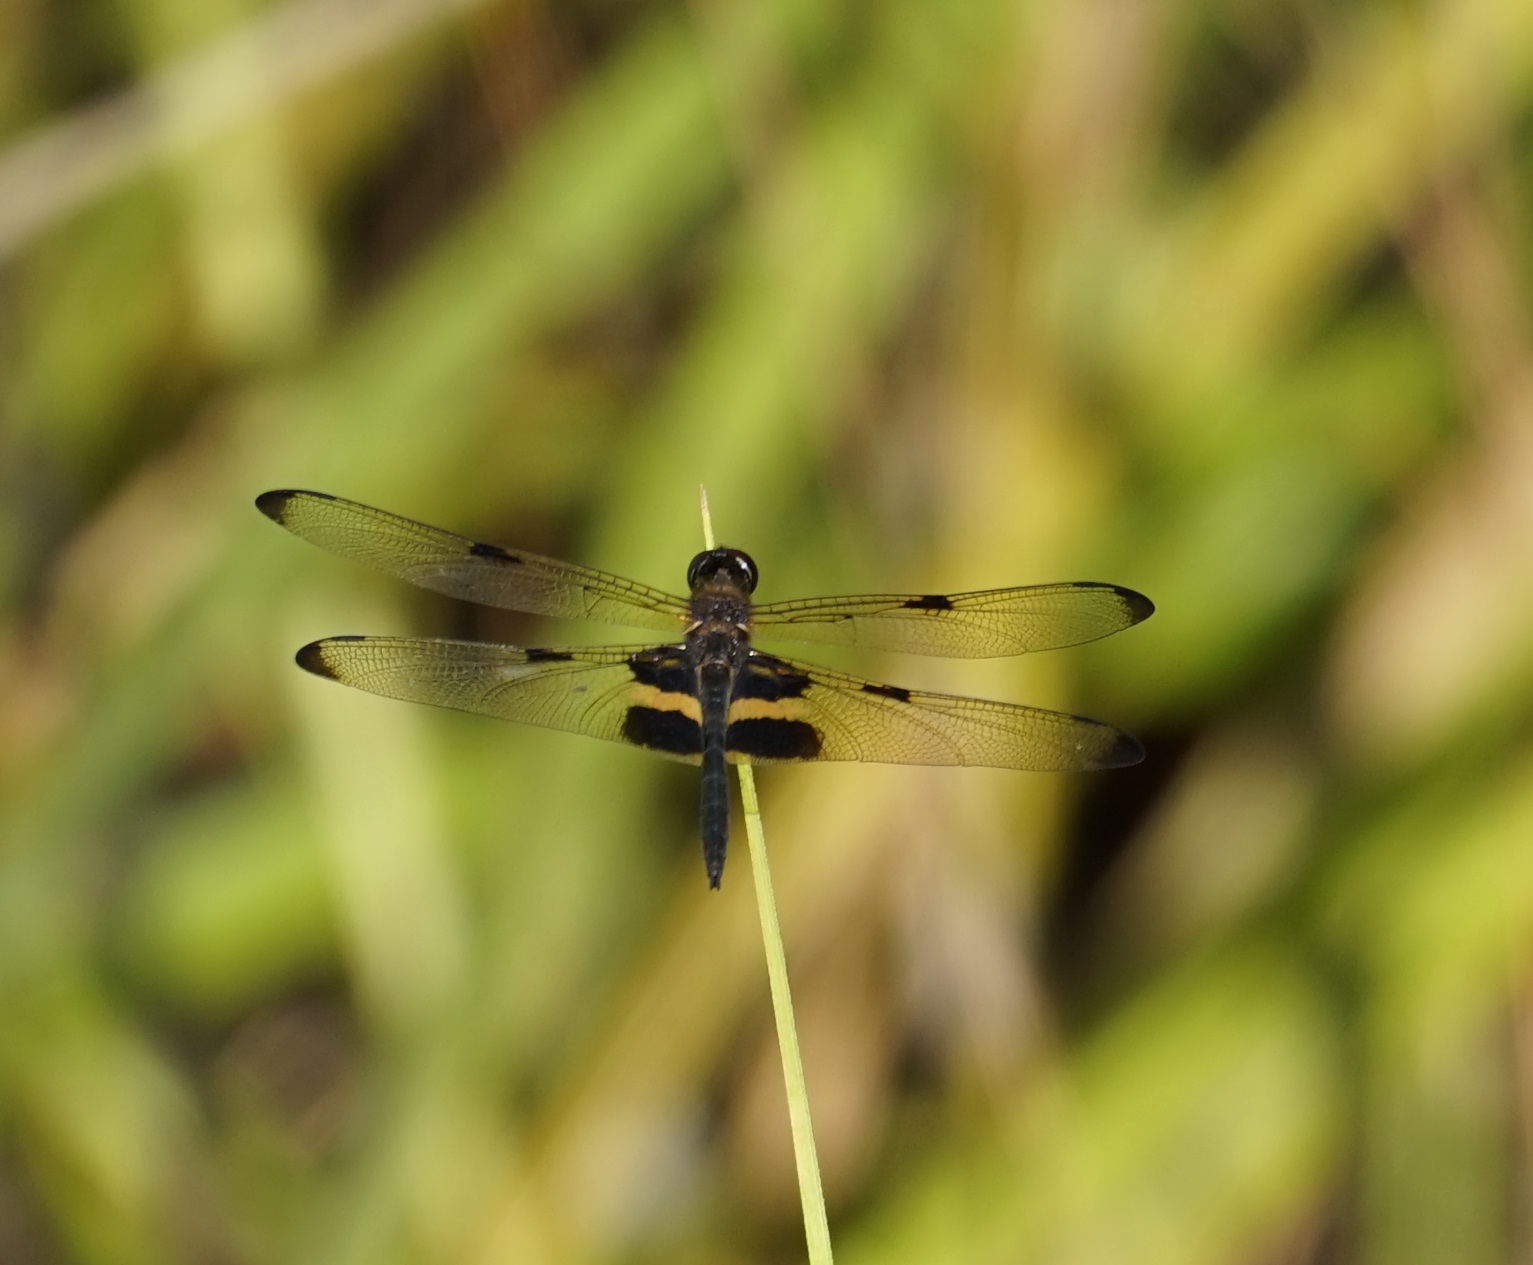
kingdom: Animalia
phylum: Arthropoda
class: Insecta
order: Odonata
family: Libellulidae
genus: Rhyothemis
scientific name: Rhyothemis phyllis
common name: Yellow-barred flutterer
